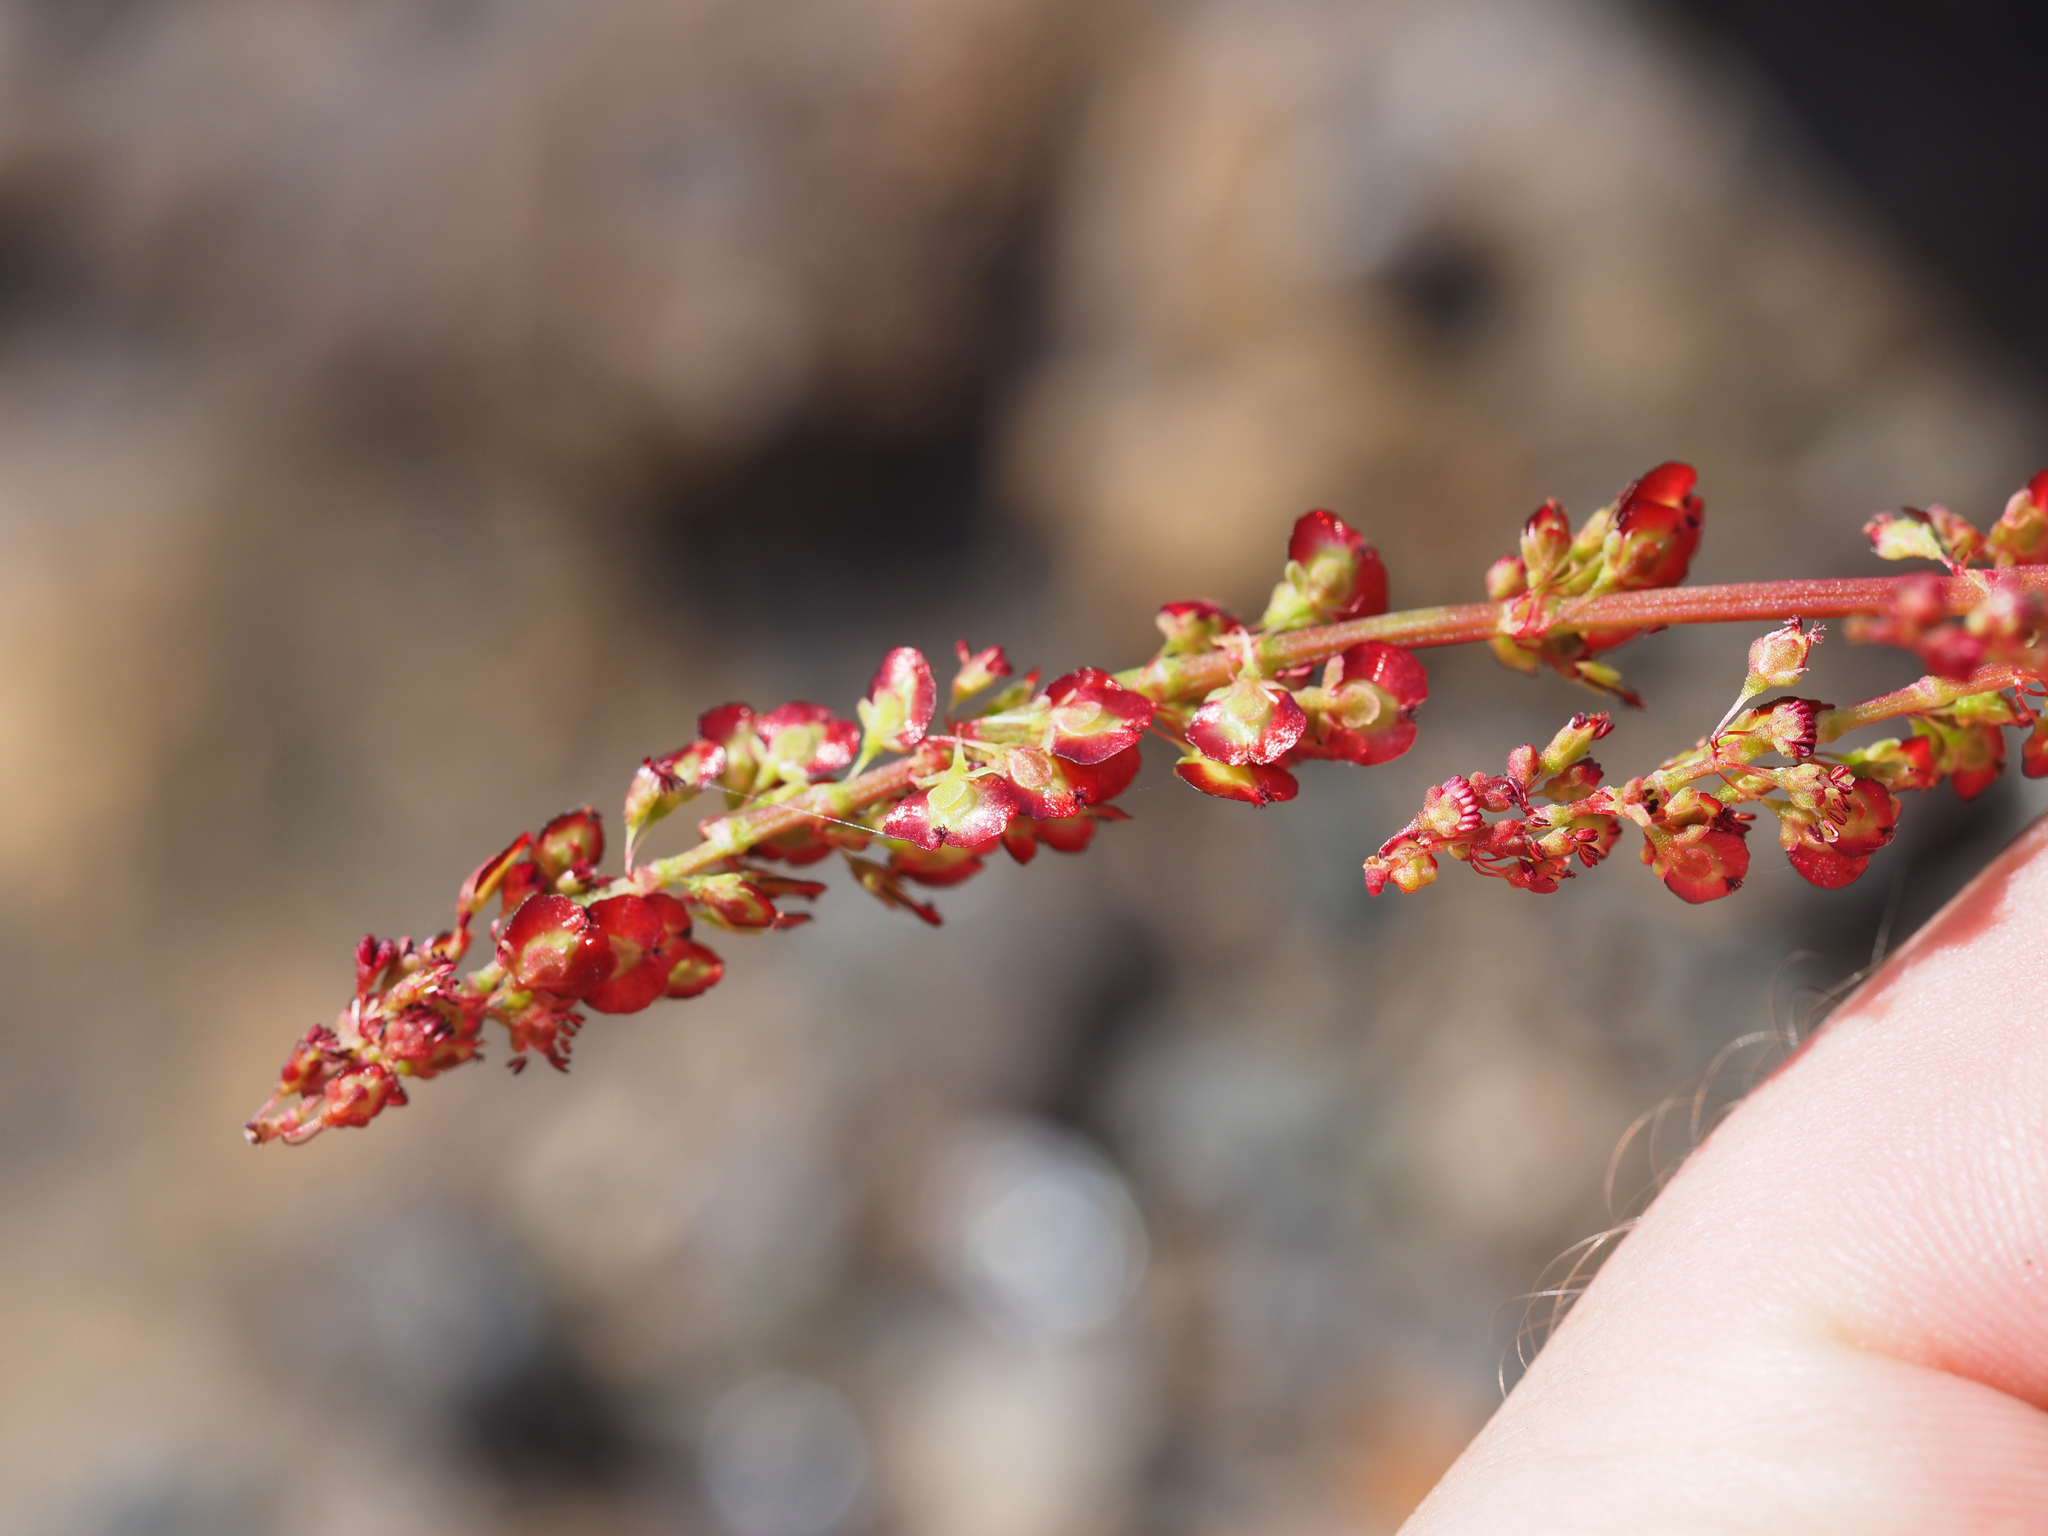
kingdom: Plantae
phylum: Tracheophyta
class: Magnoliopsida
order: Caryophyllales
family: Polygonaceae
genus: Oxyria
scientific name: Oxyria digyna
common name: Alpine mountain-sorrel
